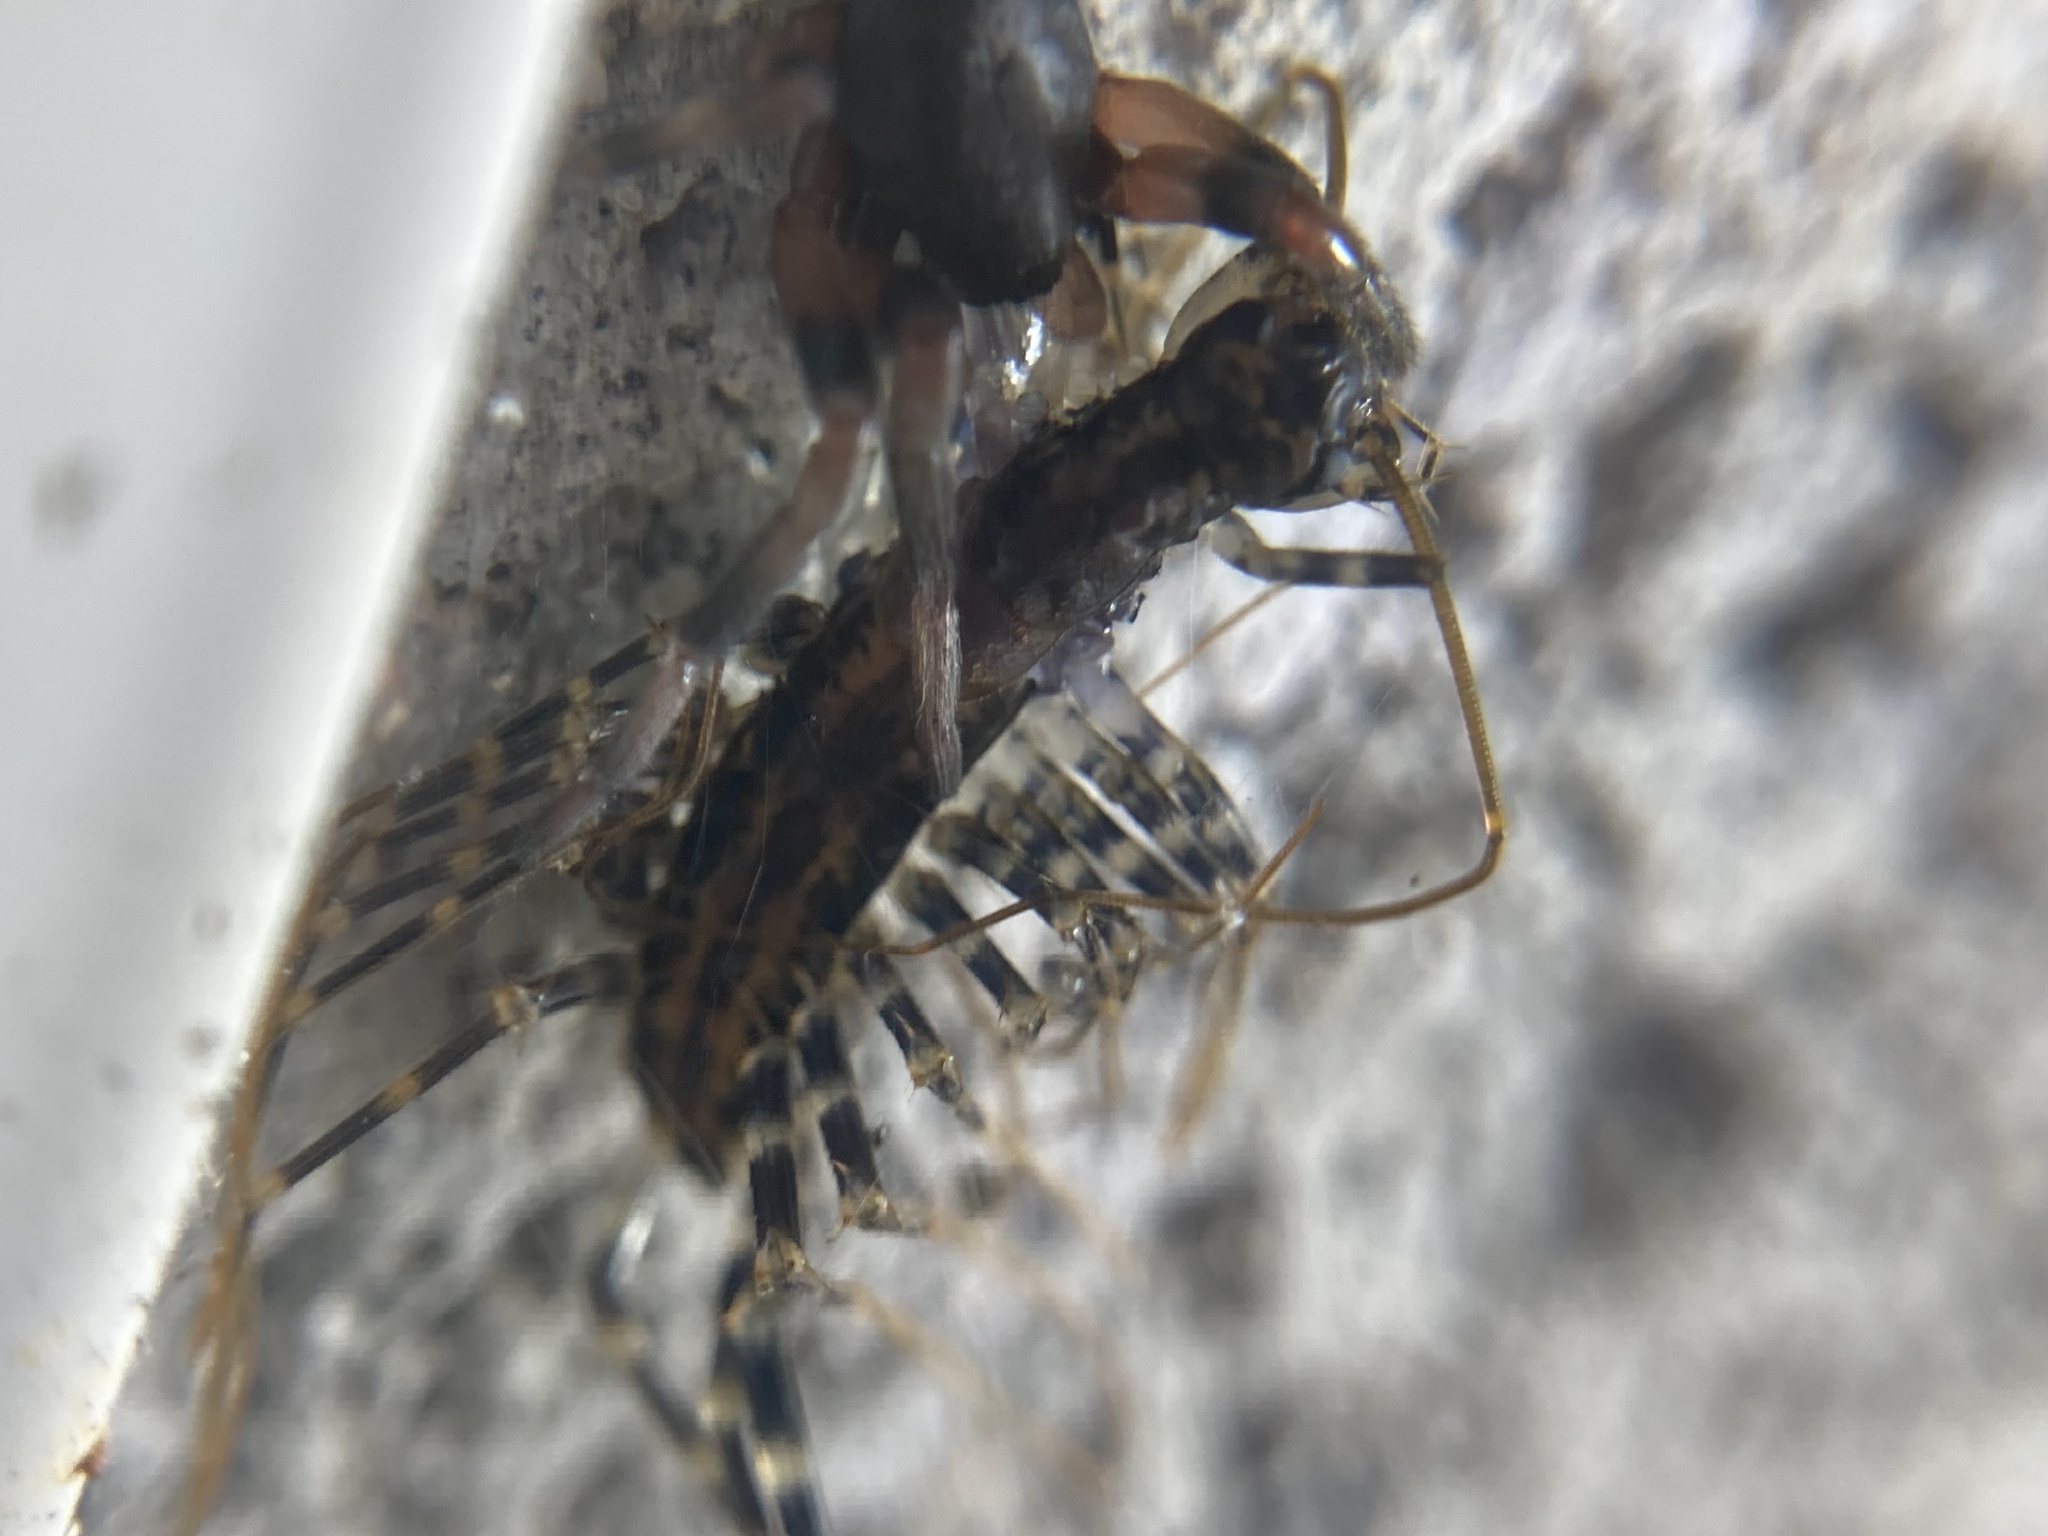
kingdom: Animalia
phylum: Arthropoda
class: Chilopoda
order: Scutigeromorpha
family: Scutigeridae
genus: Allothereua
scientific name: Allothereua maculata
